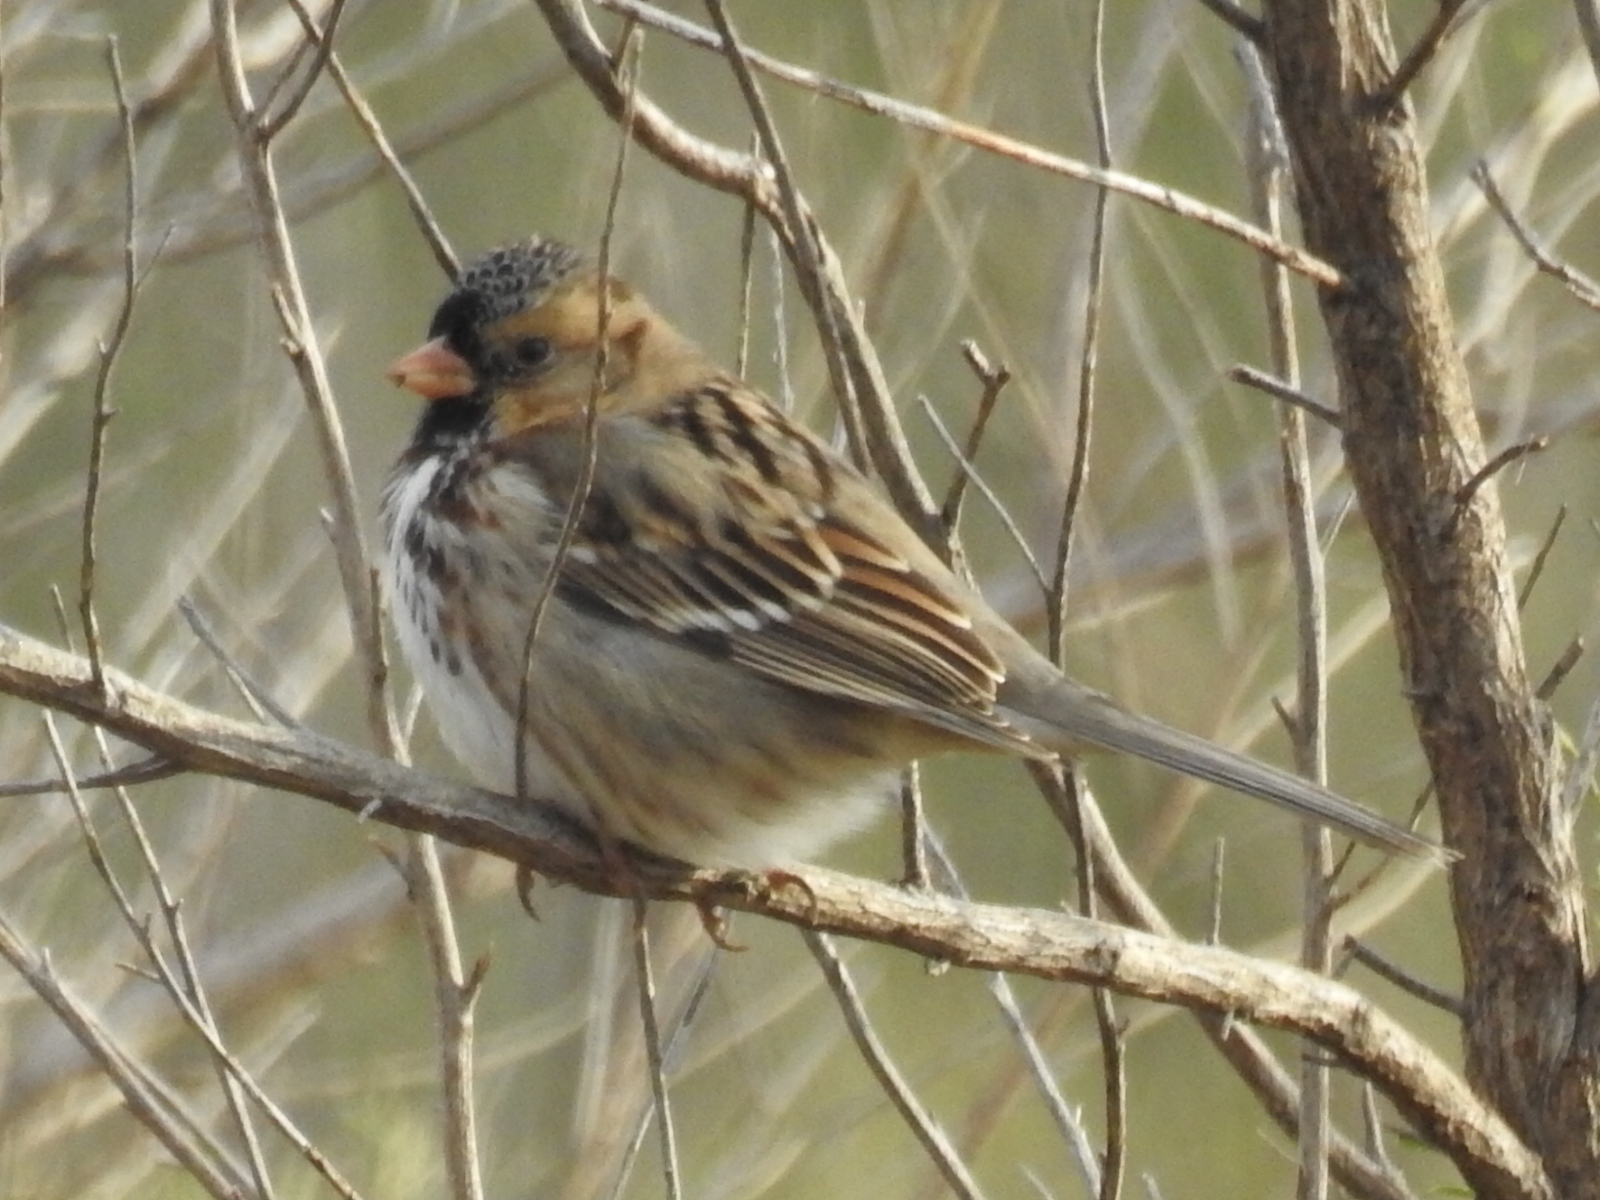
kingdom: Animalia
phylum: Chordata
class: Aves
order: Passeriformes
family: Passerellidae
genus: Zonotrichia
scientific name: Zonotrichia querula
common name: Harris's sparrow
